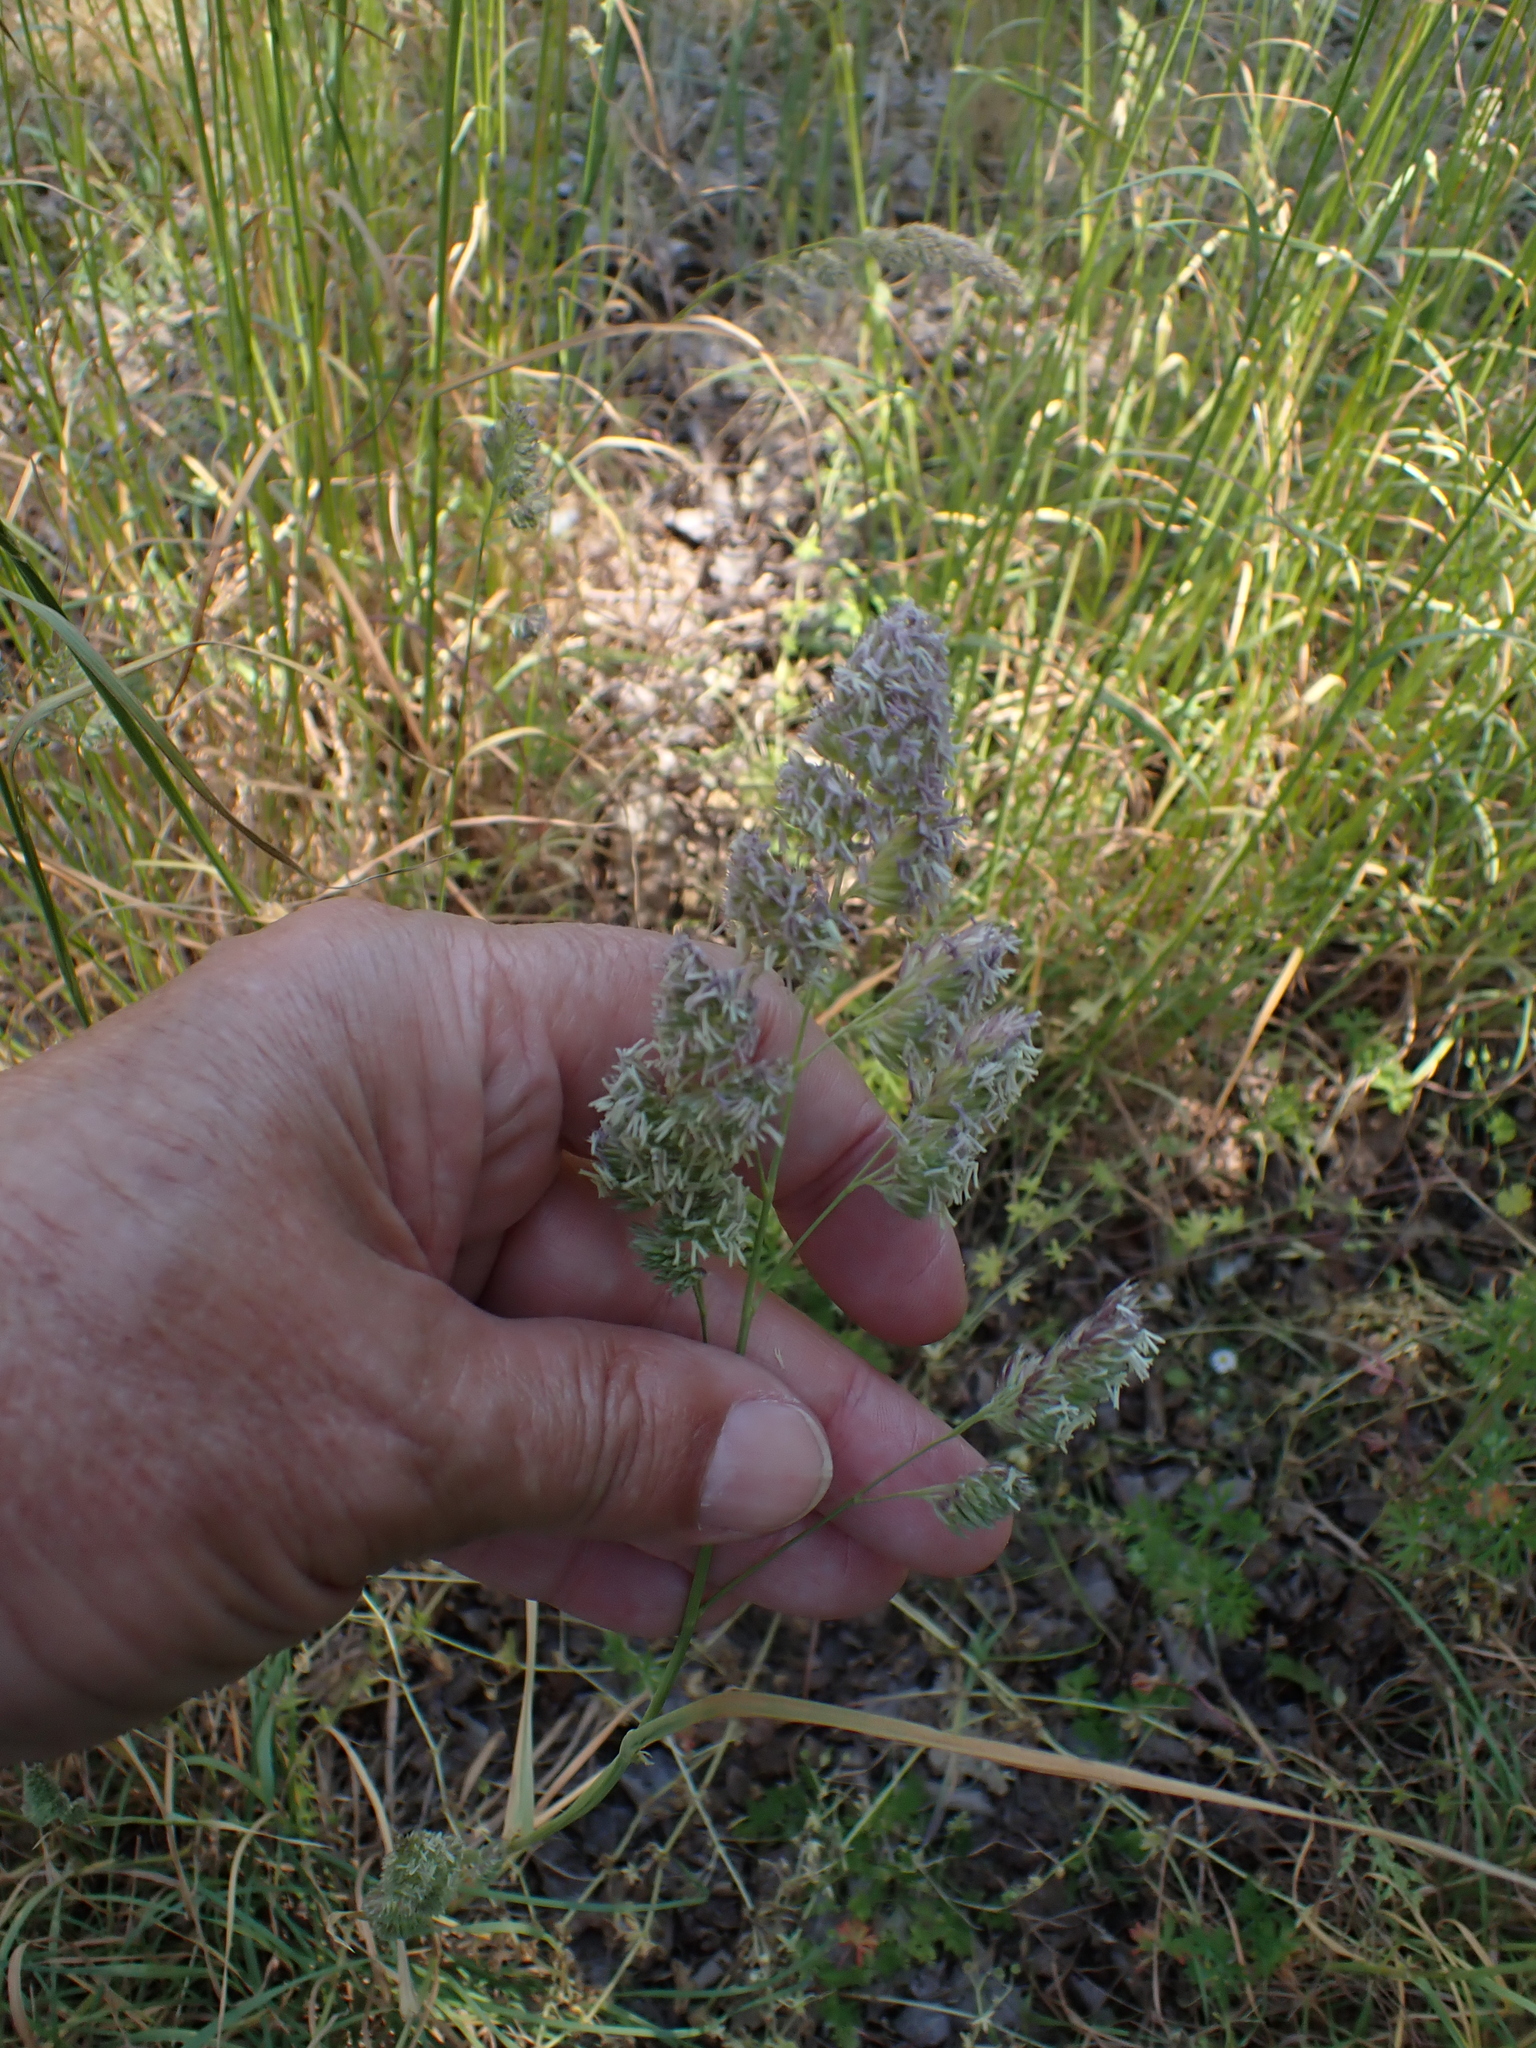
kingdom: Plantae
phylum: Tracheophyta
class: Liliopsida
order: Poales
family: Poaceae
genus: Dactylis
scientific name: Dactylis glomerata
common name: Orchardgrass
